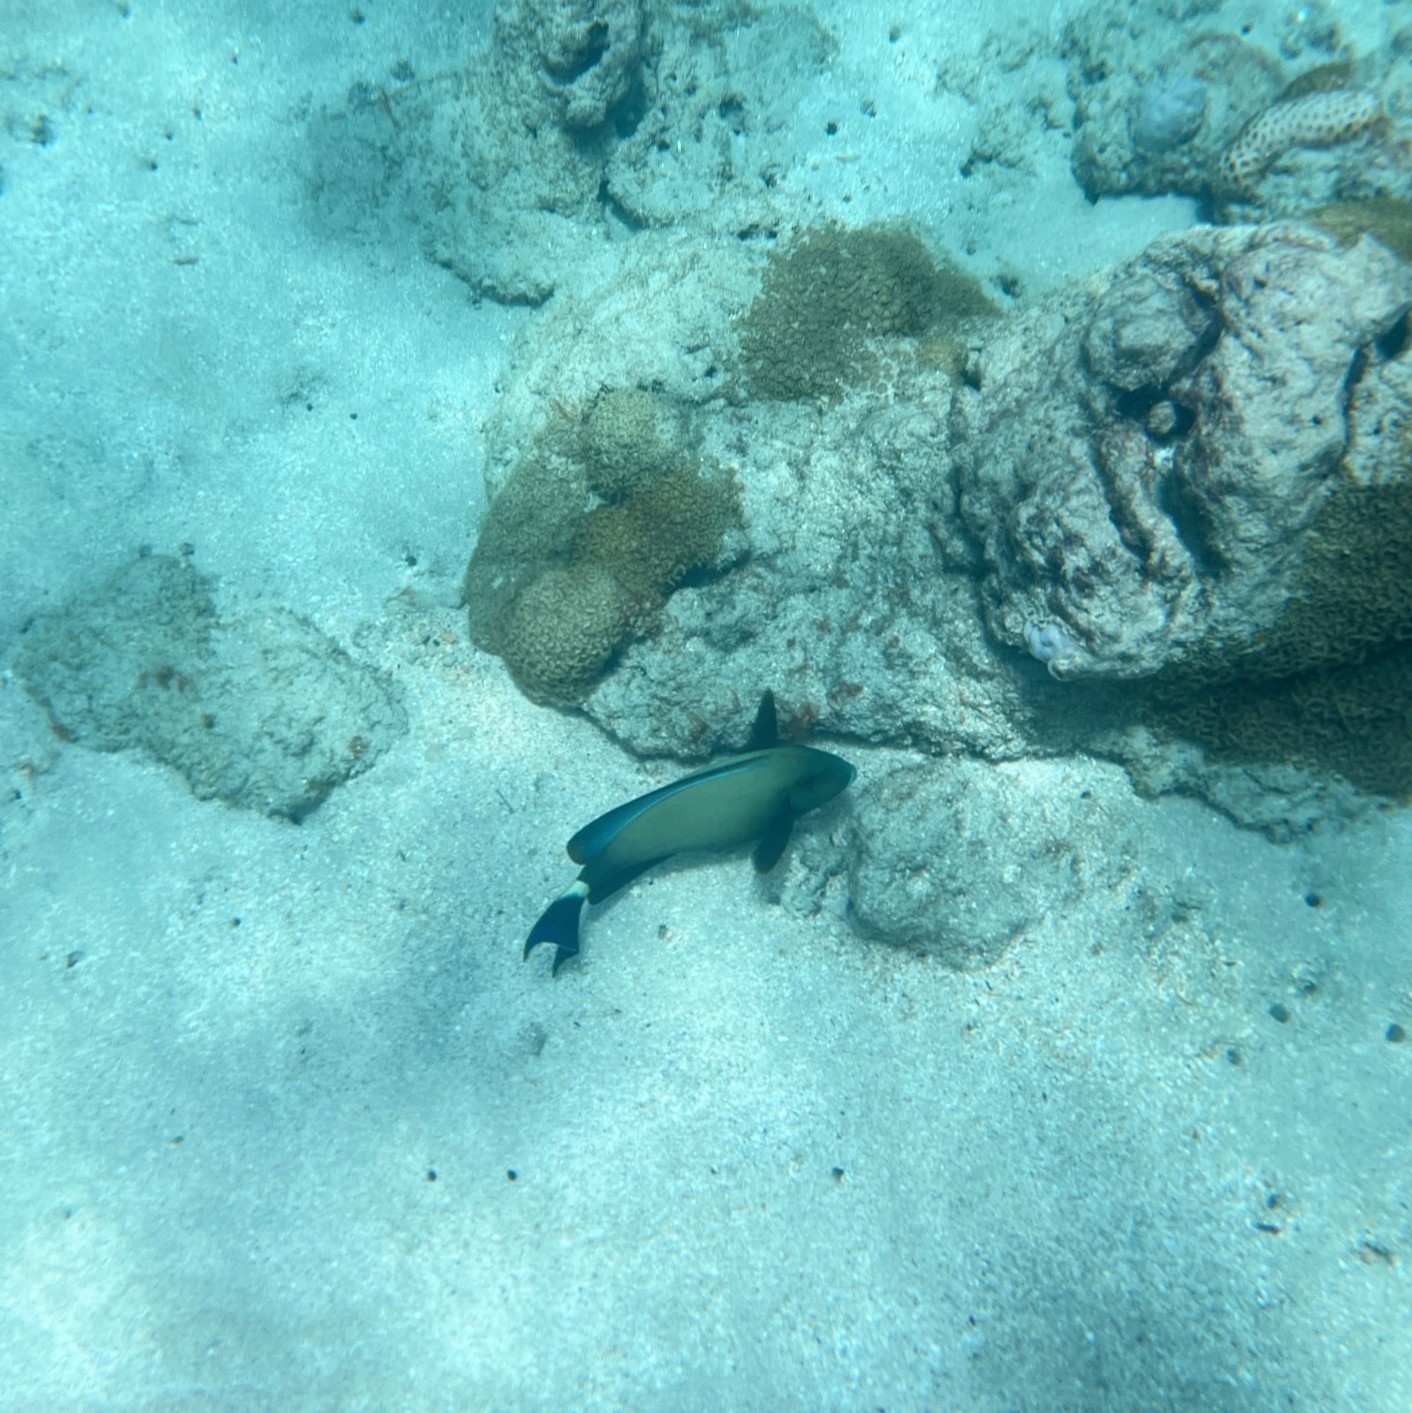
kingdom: Animalia
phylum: Chordata
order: Perciformes
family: Acanthuridae
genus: Acanthurus
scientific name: Acanthurus blochii
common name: Blue-banded pualu
